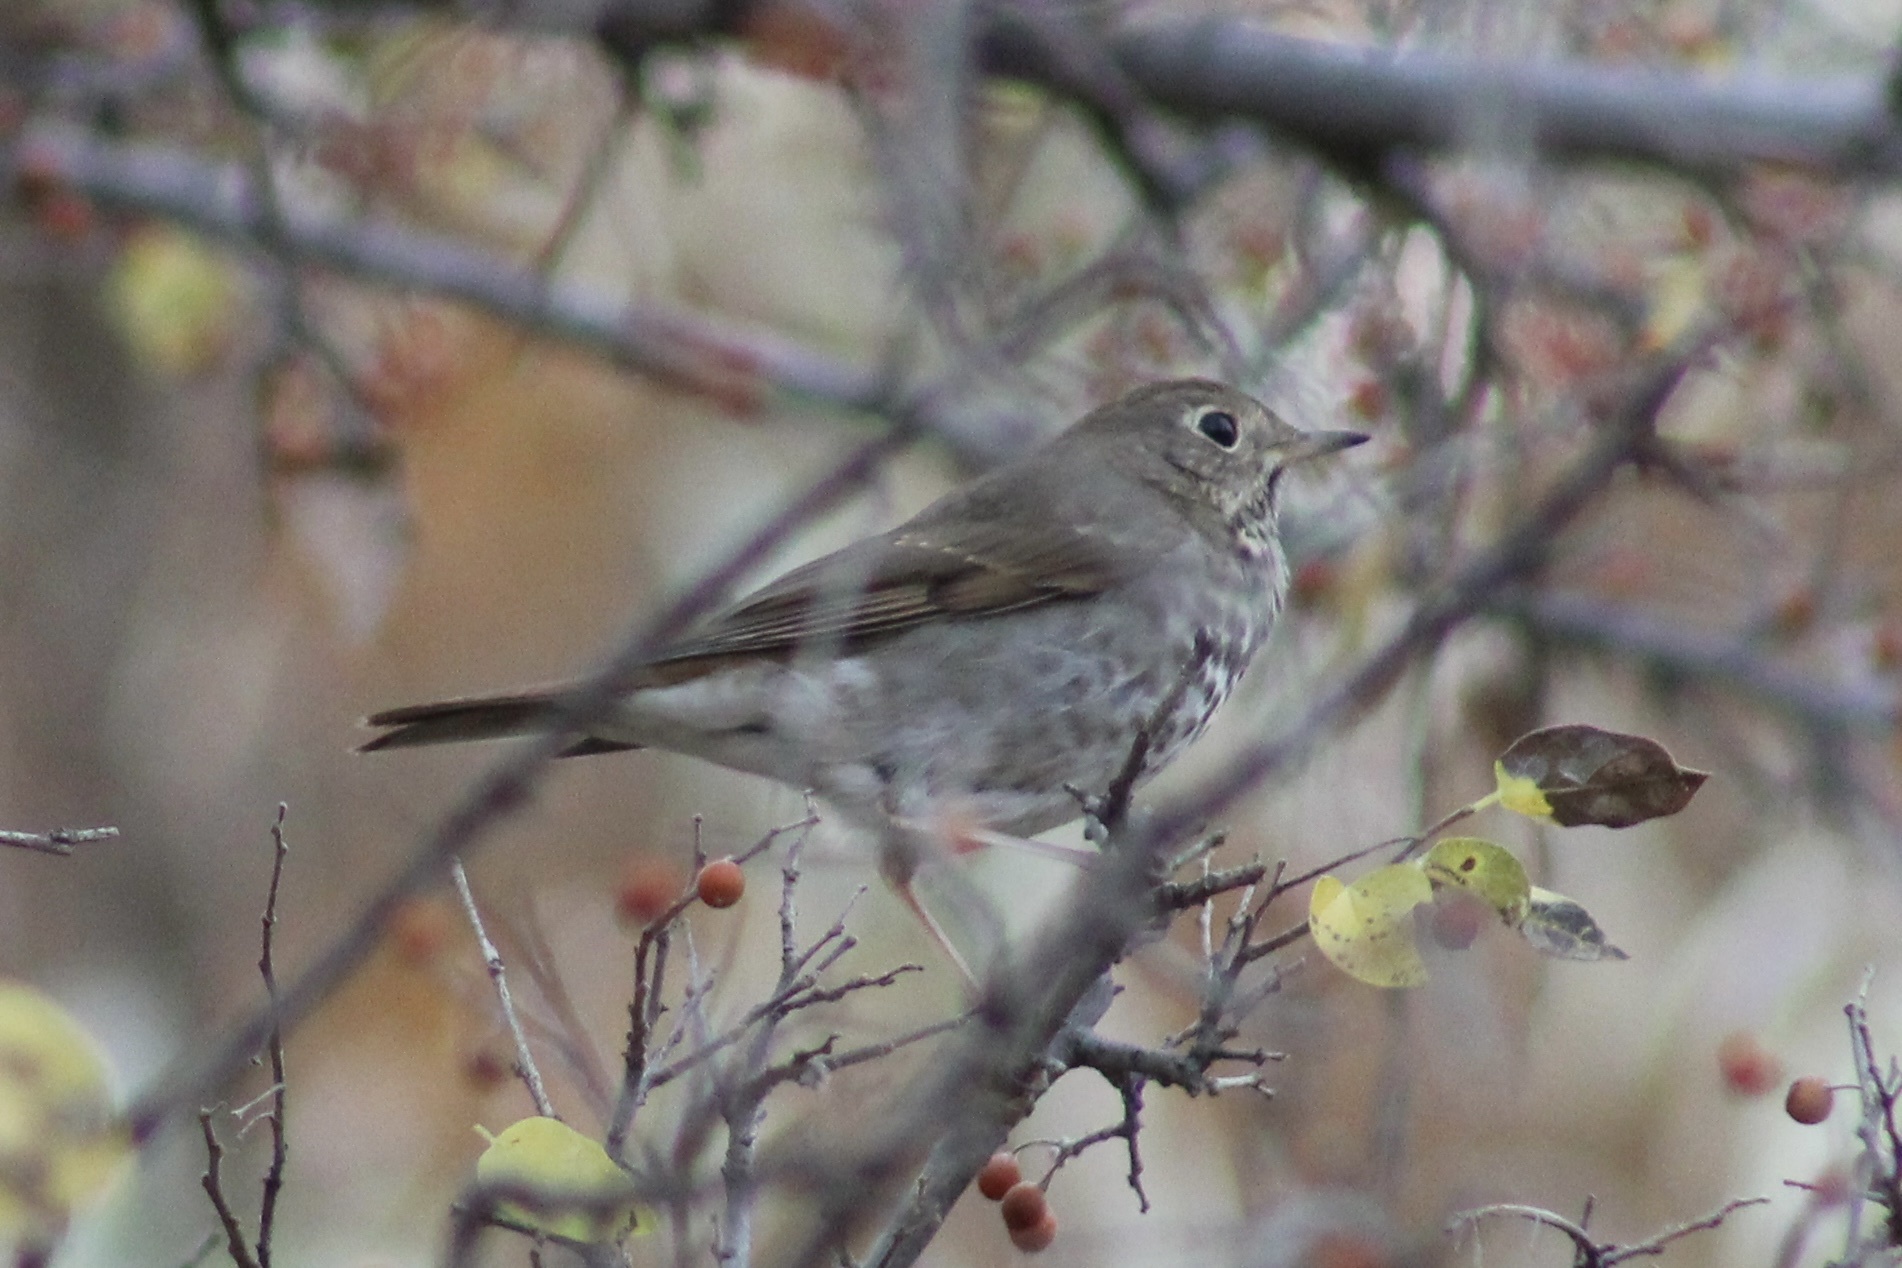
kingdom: Animalia
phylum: Chordata
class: Aves
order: Passeriformes
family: Turdidae
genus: Catharus
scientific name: Catharus guttatus
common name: Hermit thrush
